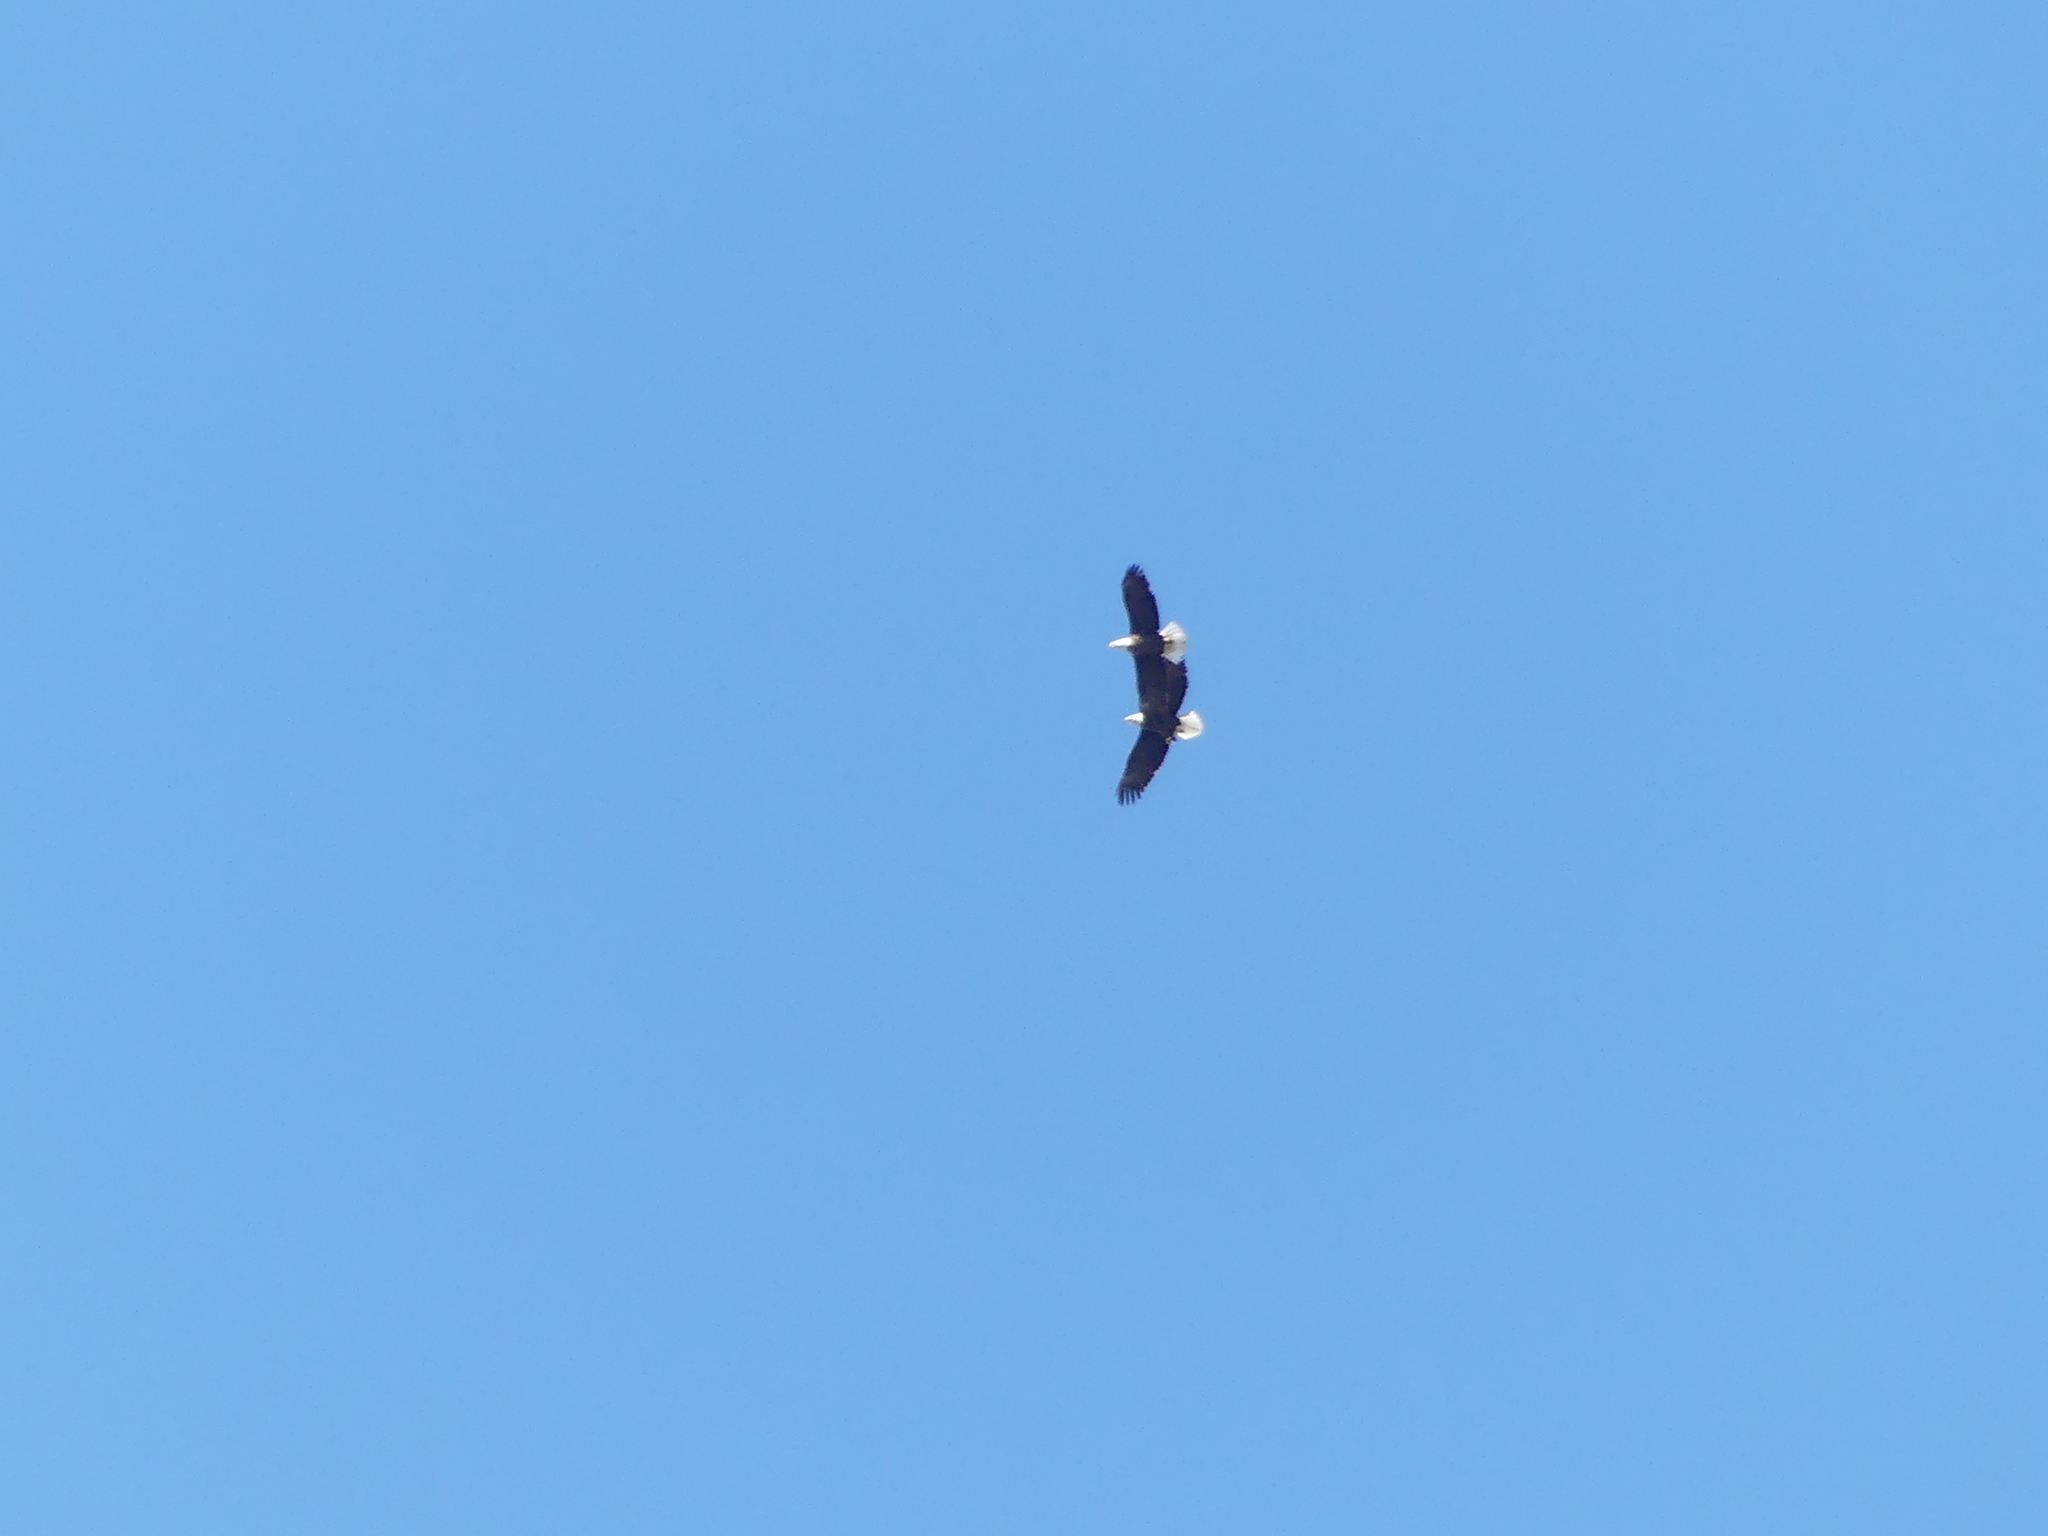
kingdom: Animalia
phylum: Chordata
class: Aves
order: Accipitriformes
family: Accipitridae
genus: Haliaeetus
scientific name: Haliaeetus leucocephalus
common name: Bald eagle
